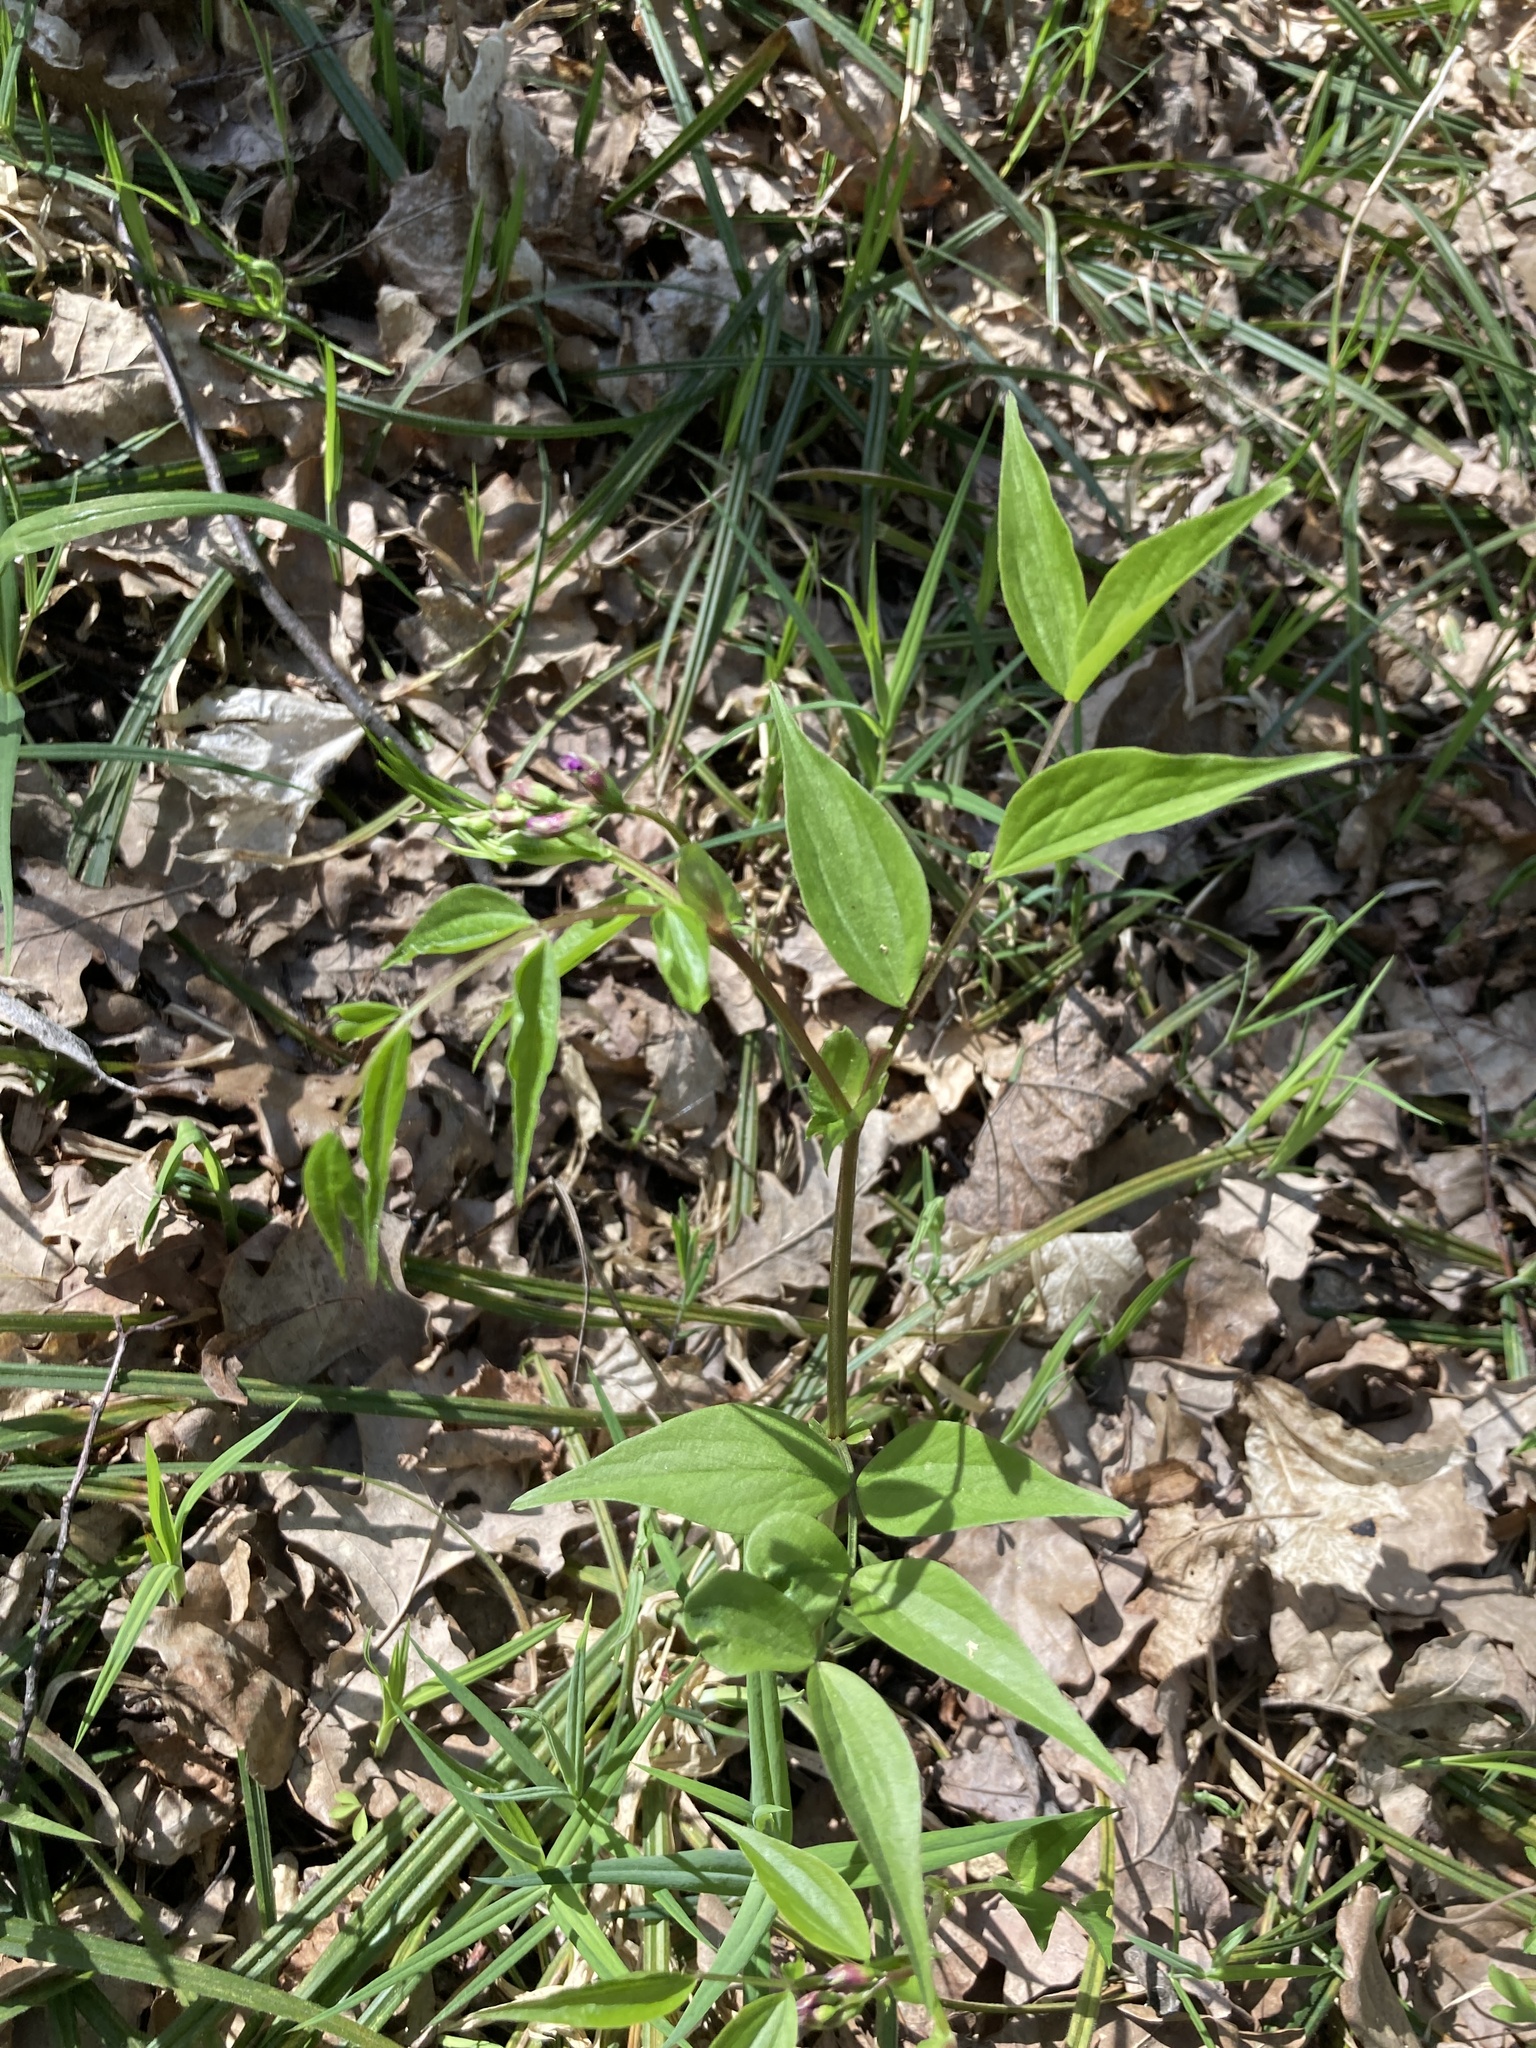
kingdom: Plantae
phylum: Tracheophyta
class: Magnoliopsida
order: Fabales
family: Fabaceae
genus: Lathyrus
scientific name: Lathyrus vernus
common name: Spring pea
